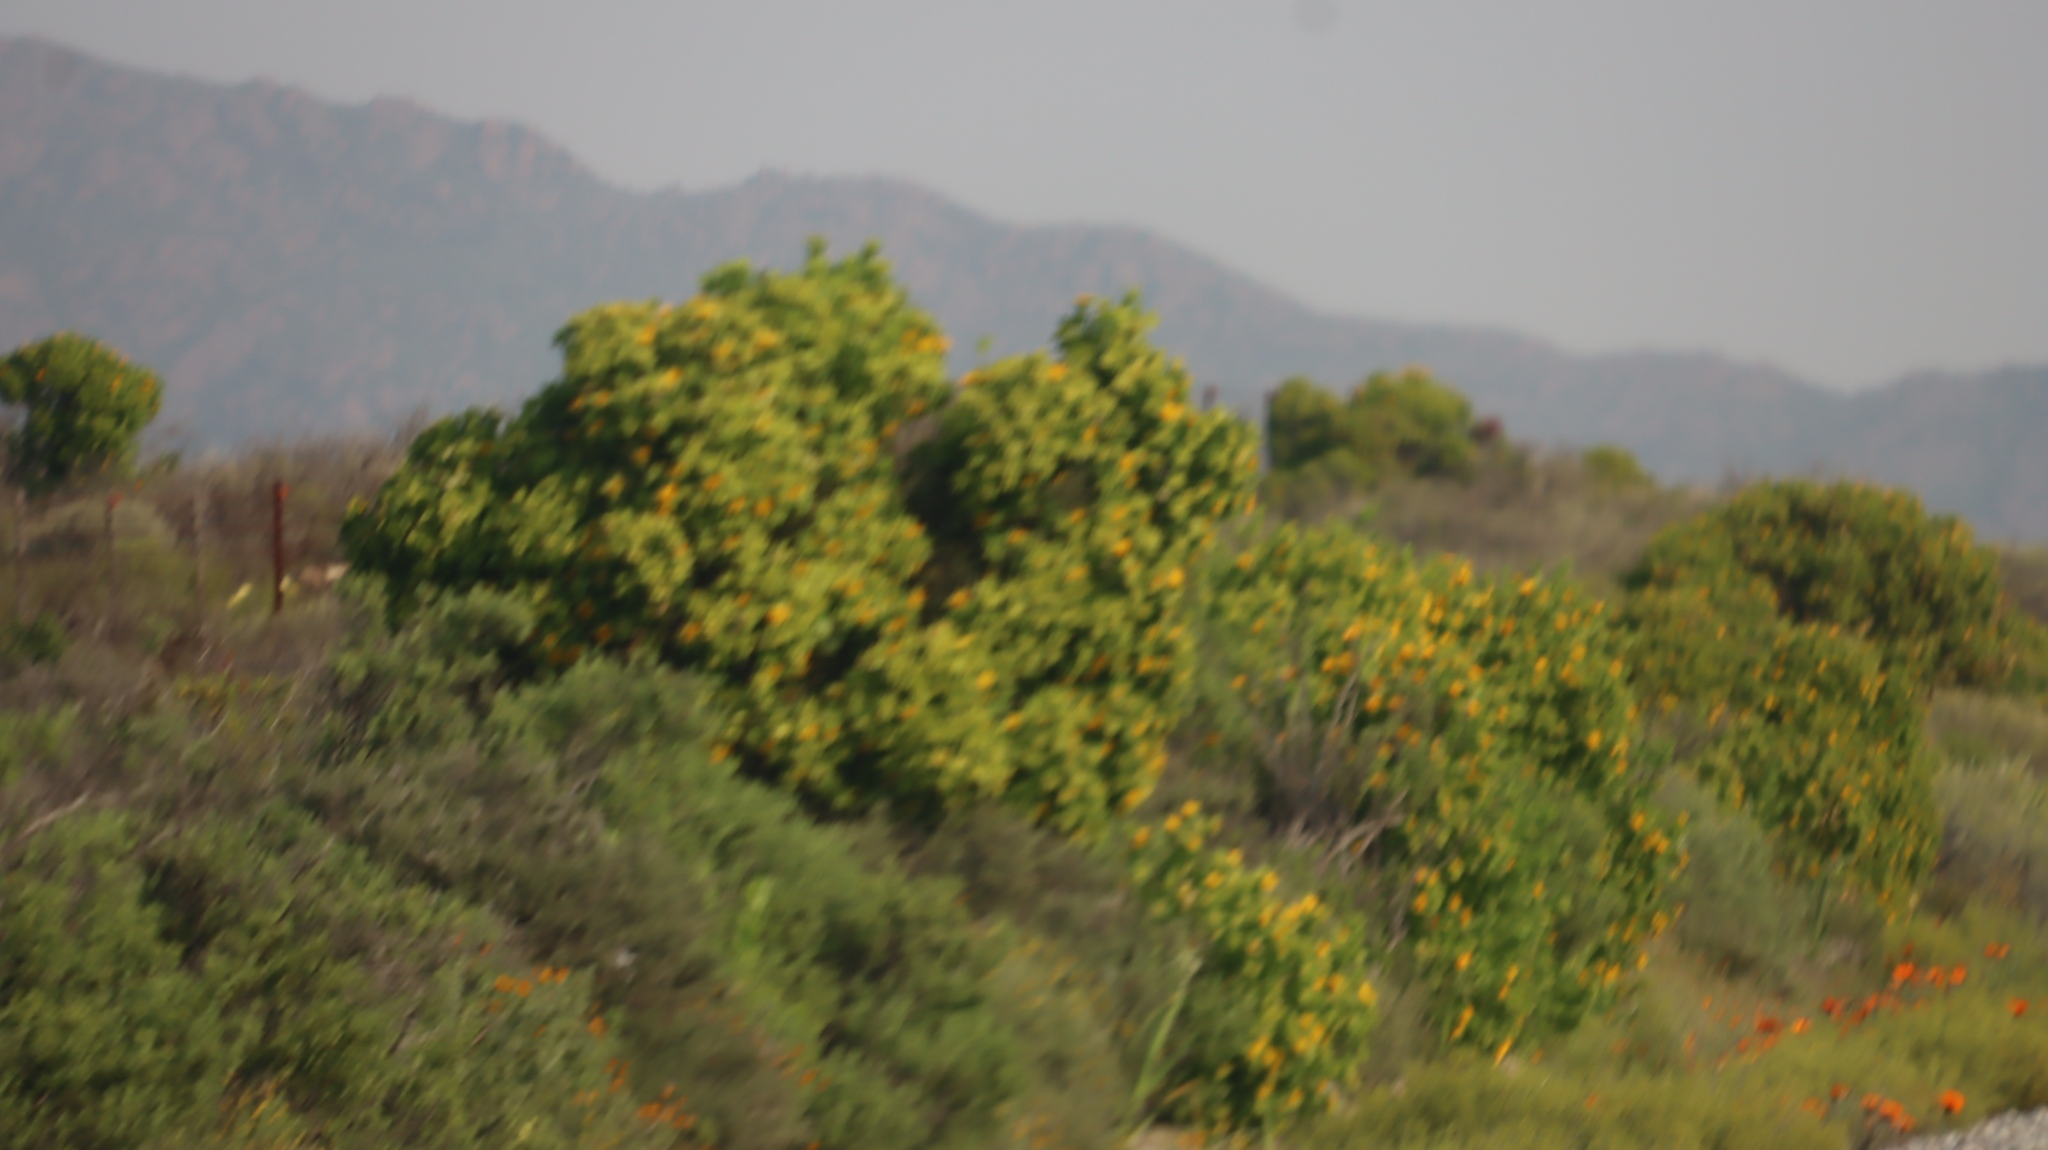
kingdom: Plantae
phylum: Tracheophyta
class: Magnoliopsida
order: Asterales
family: Asteraceae
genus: Didelta
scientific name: Didelta spinosa
